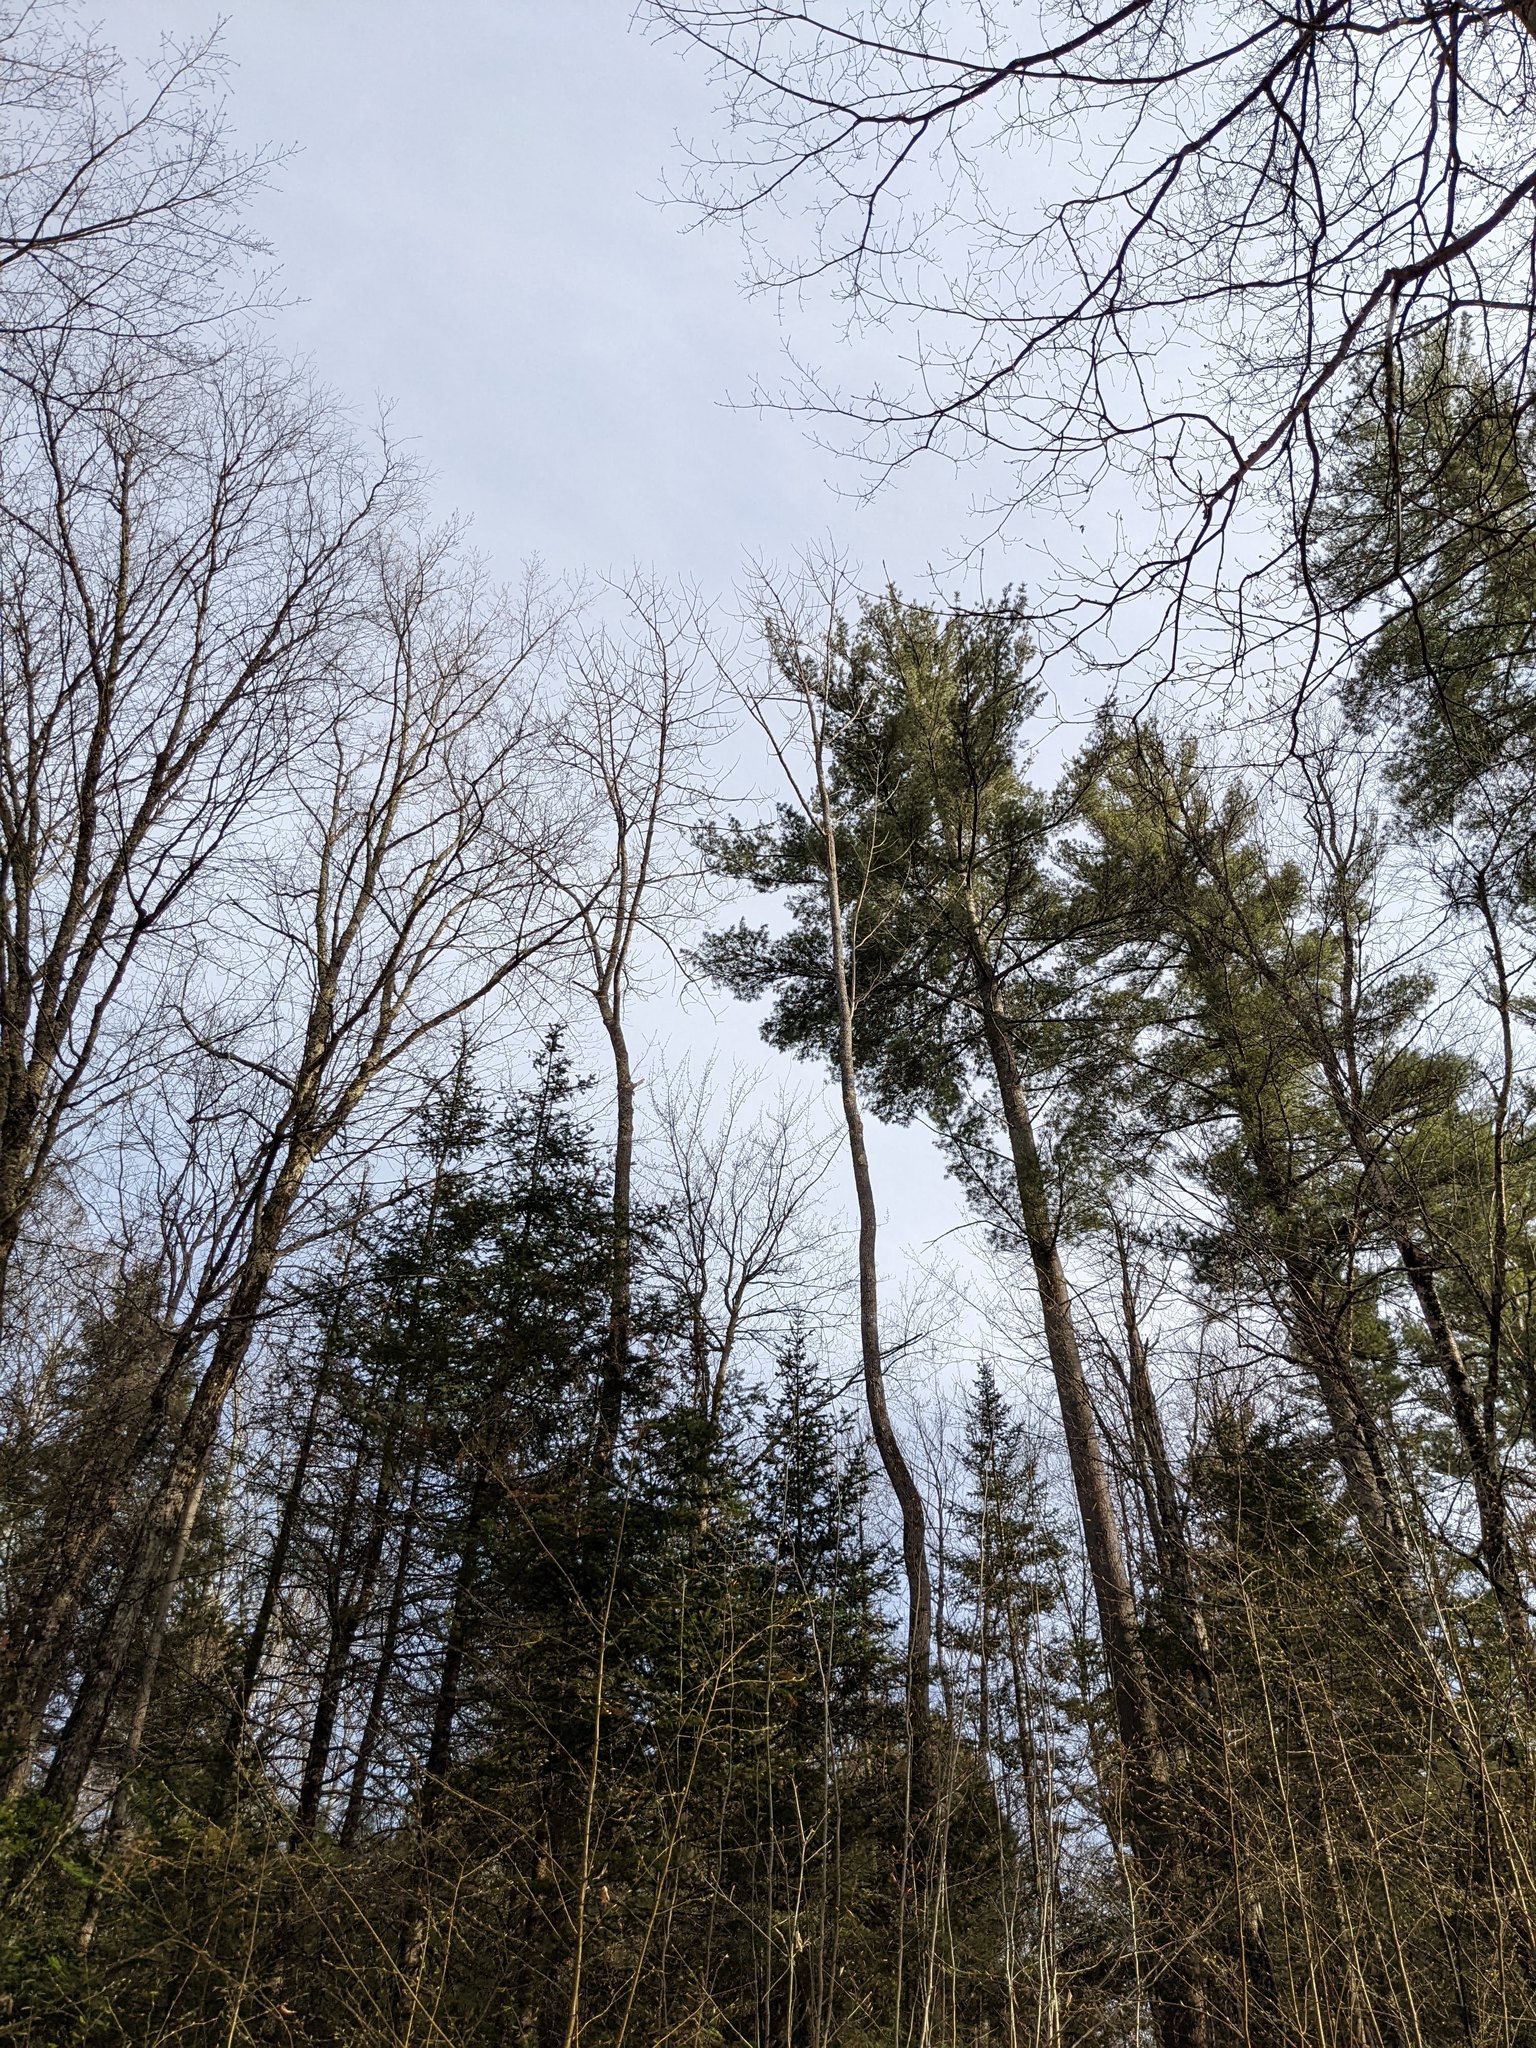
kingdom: Plantae
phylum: Tracheophyta
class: Pinopsida
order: Pinales
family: Pinaceae
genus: Pinus
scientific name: Pinus strobus
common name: Weymouth pine
